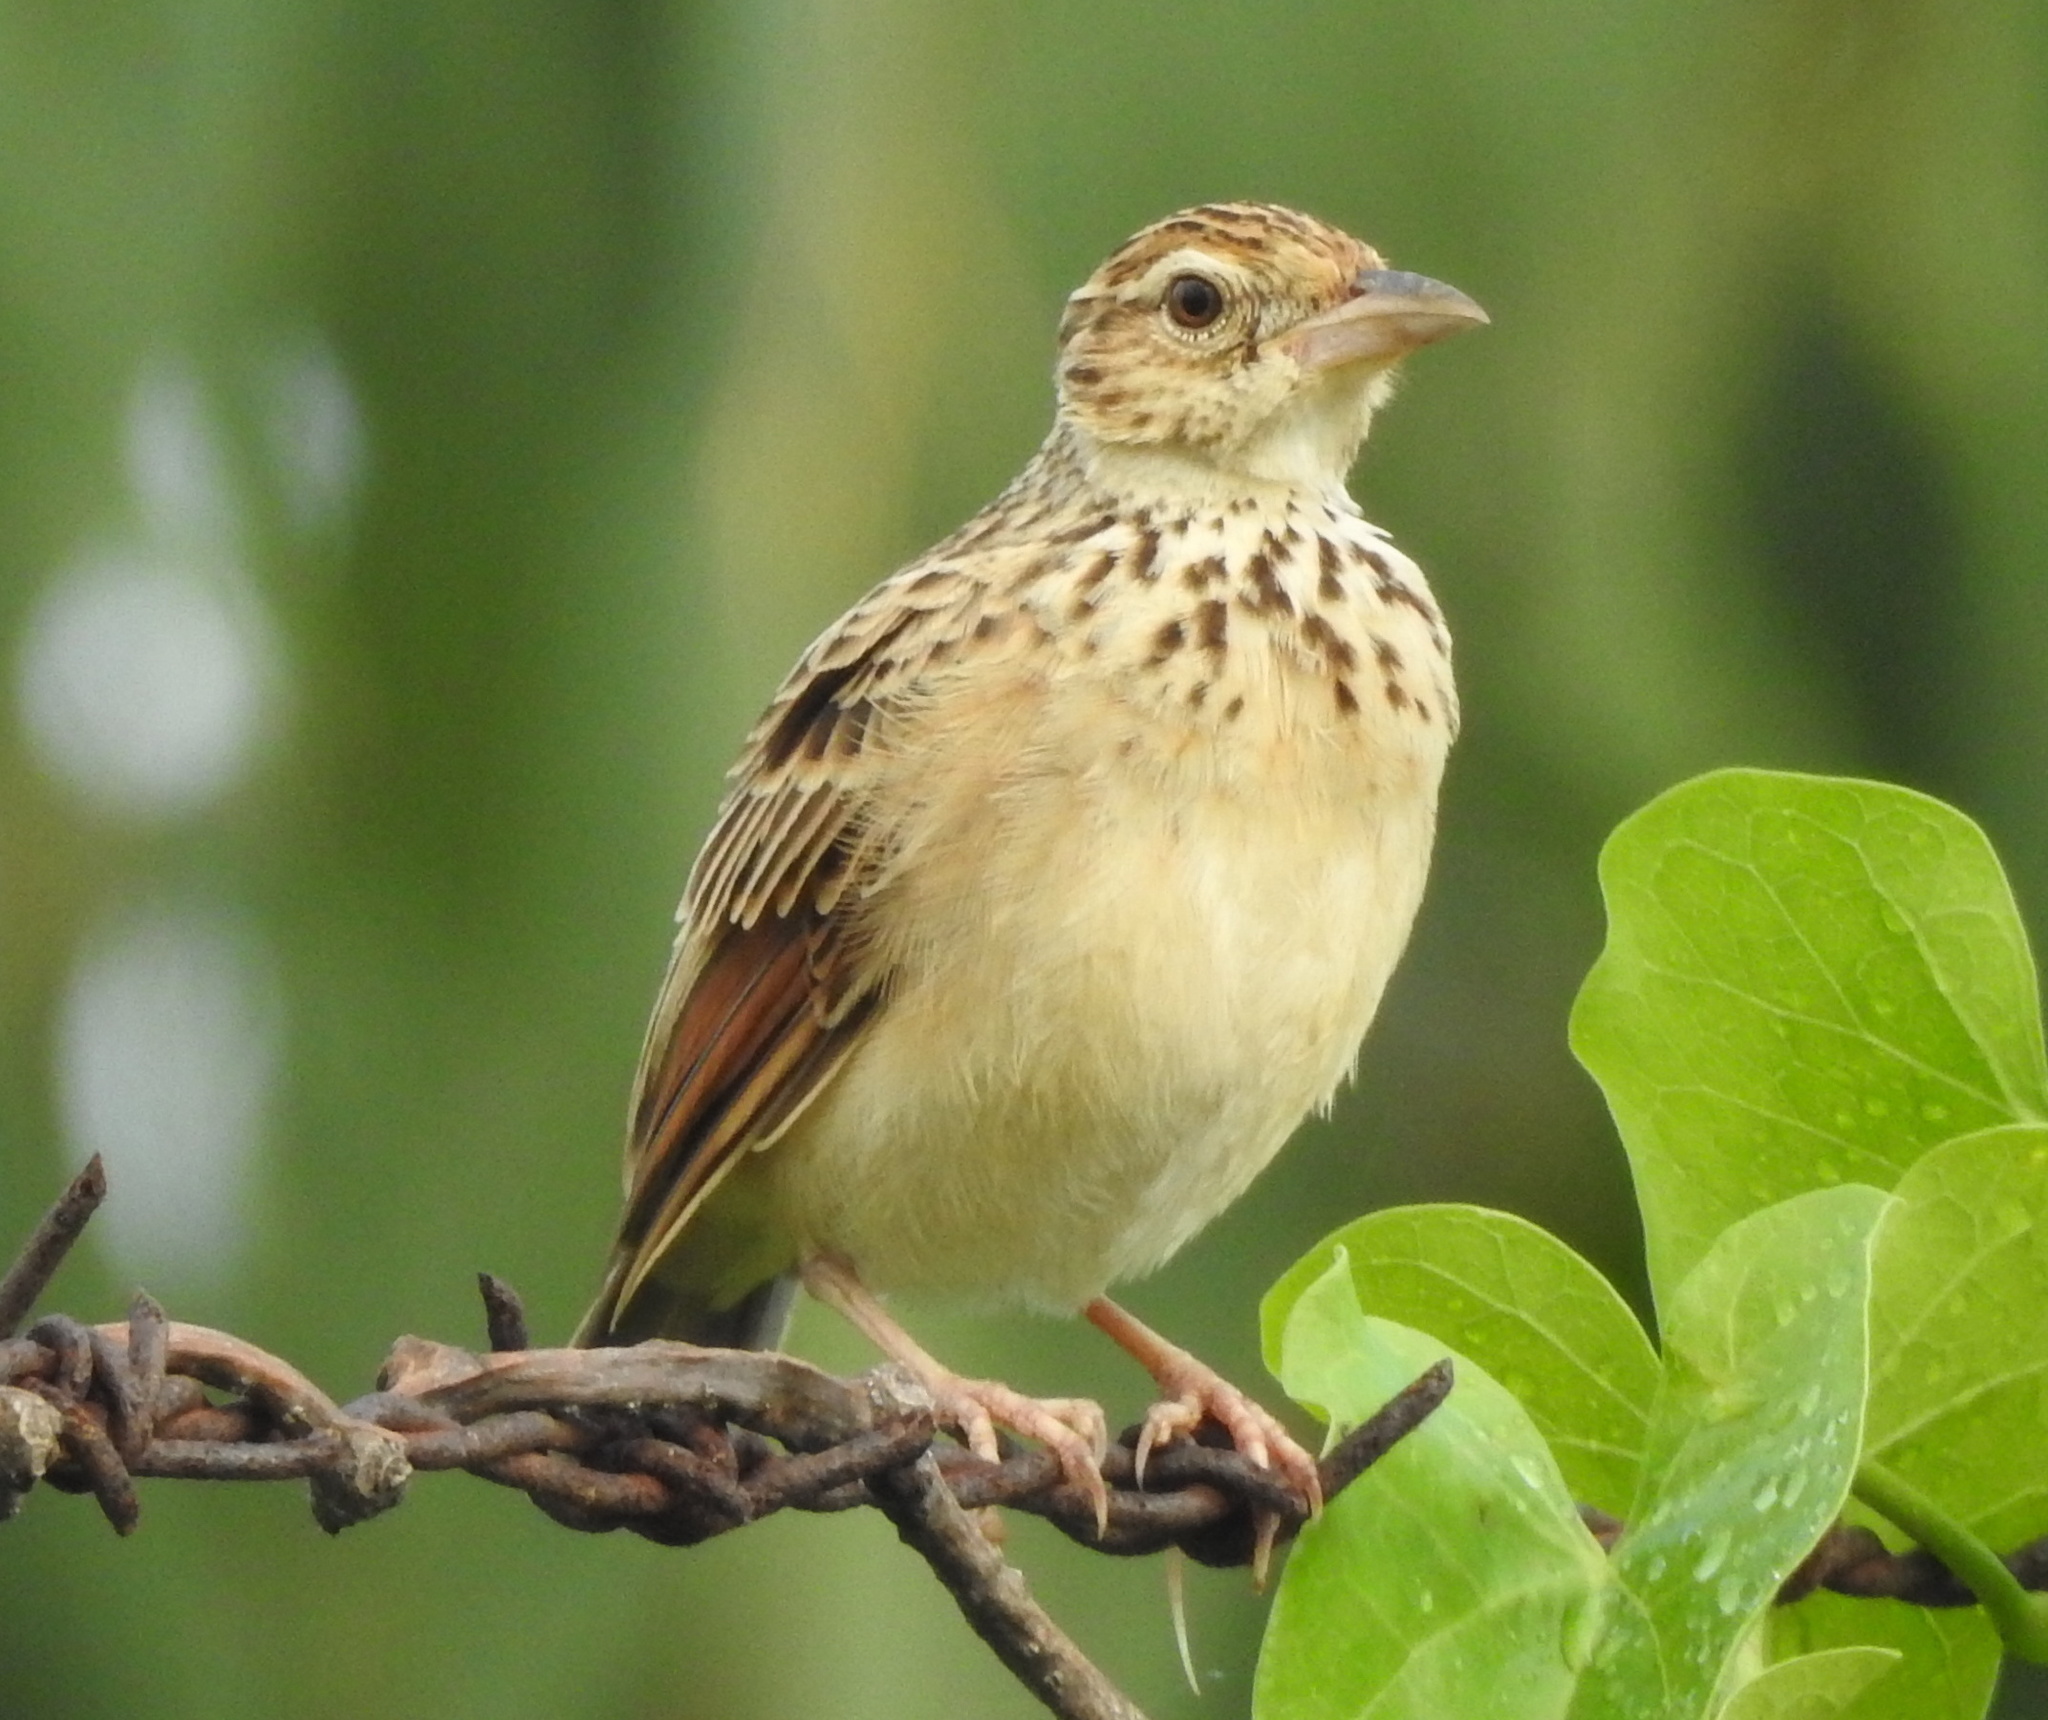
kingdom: Animalia
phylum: Chordata
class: Aves
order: Passeriformes
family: Alaudidae
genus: Mirafra
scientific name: Mirafra affinis
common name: Jerdon's bushlark
